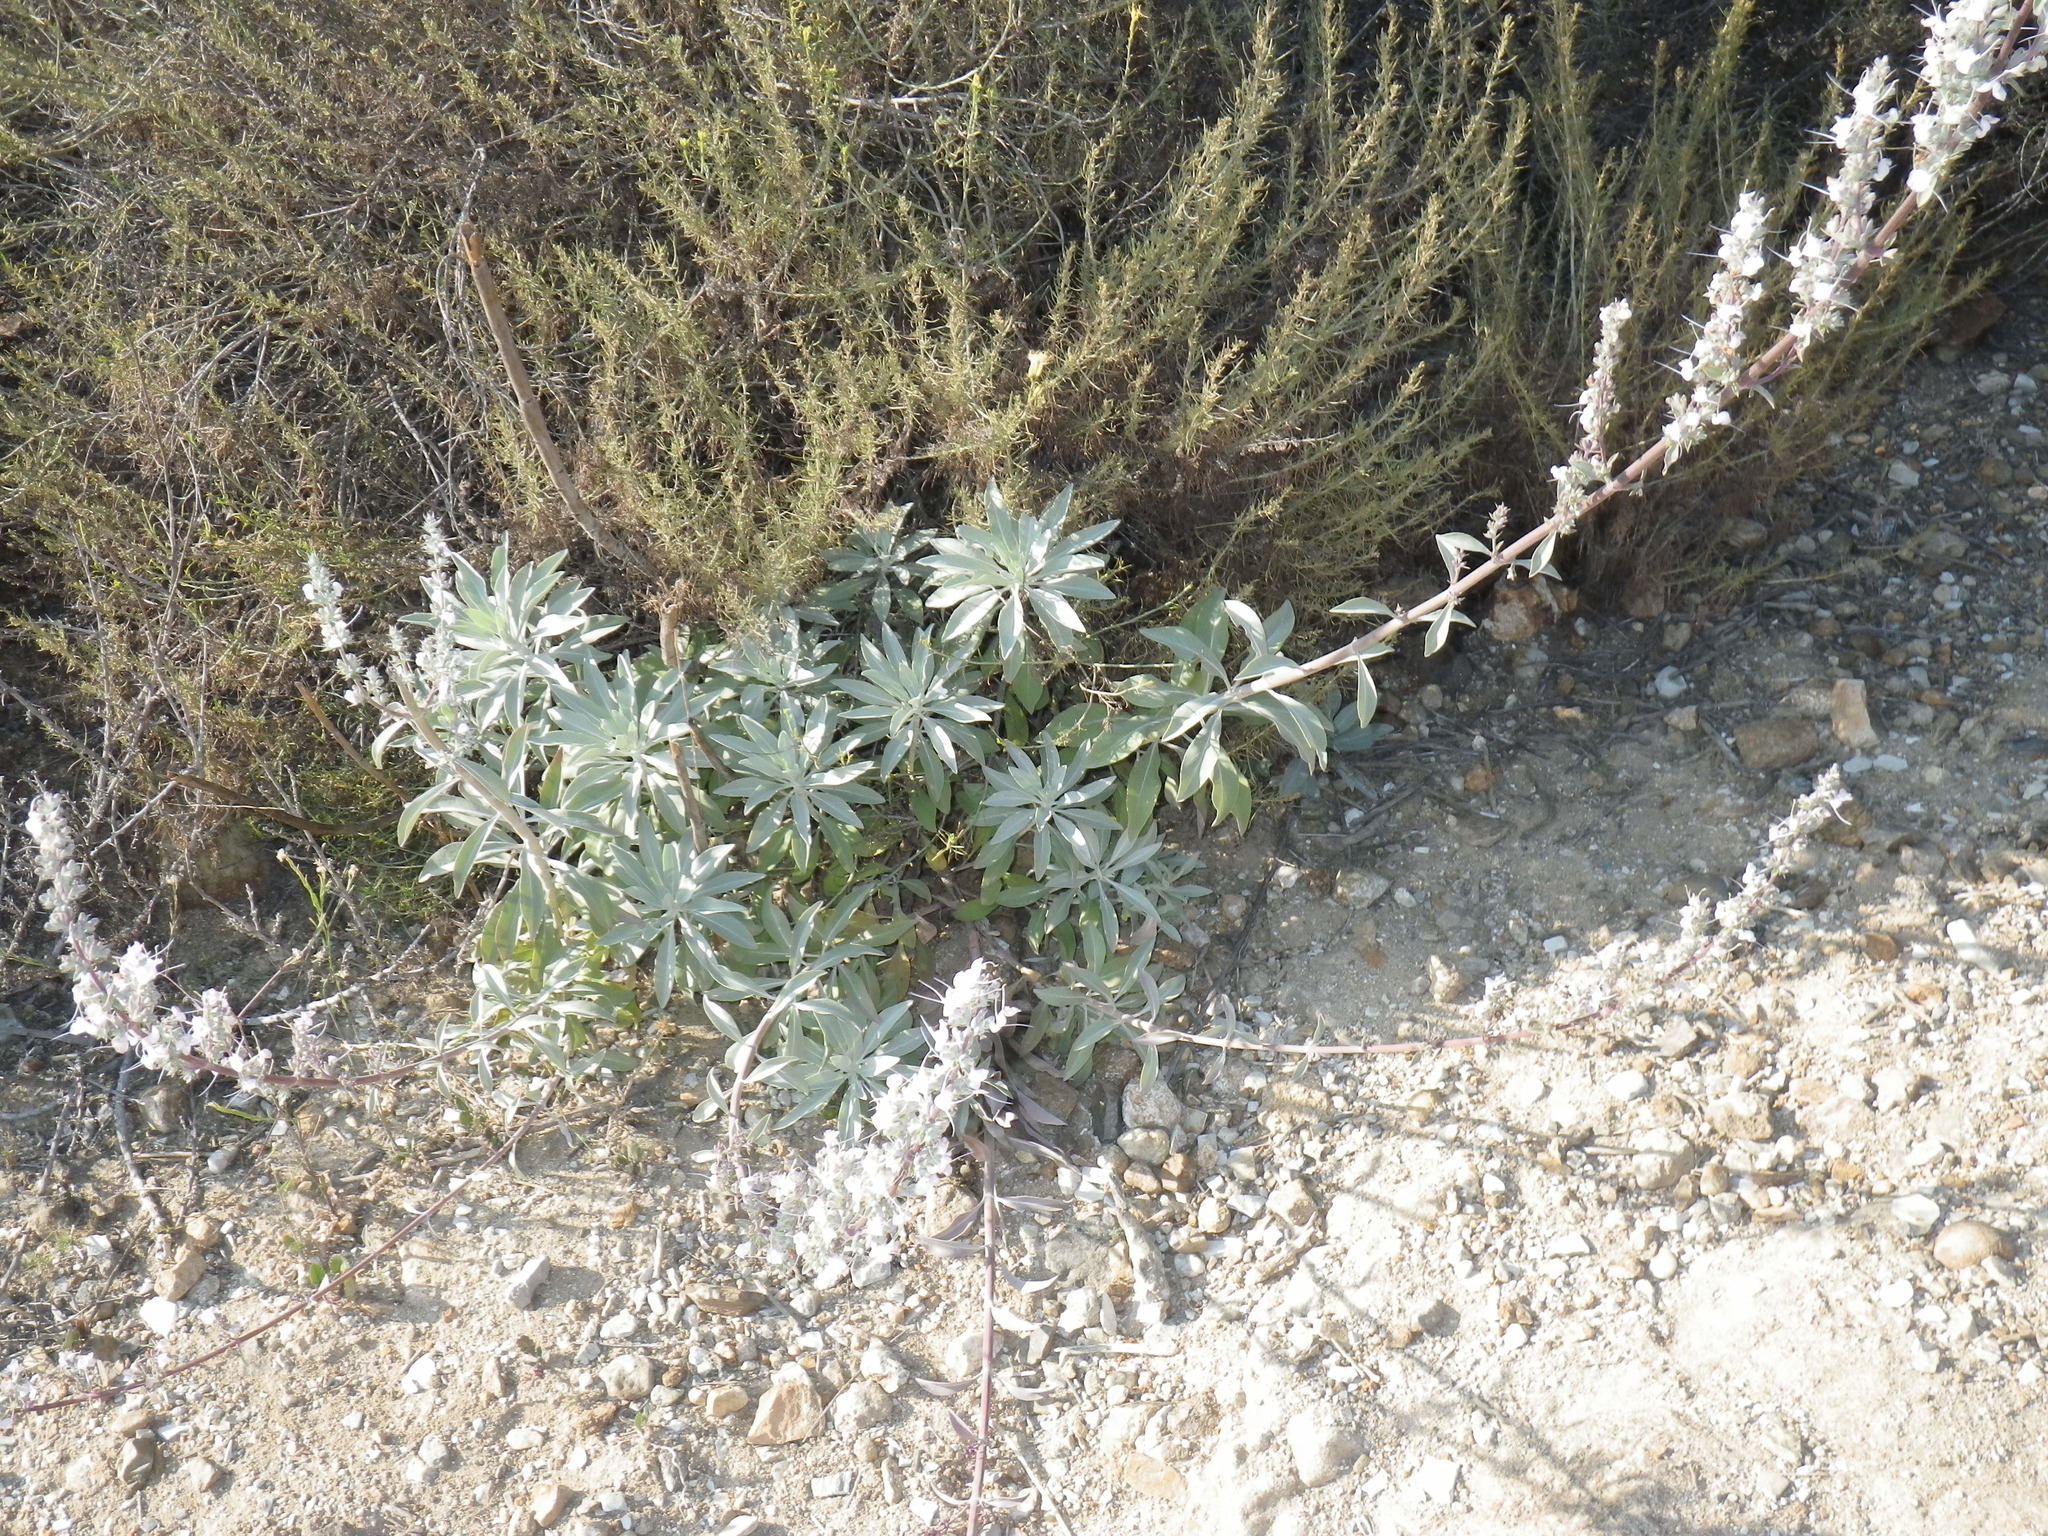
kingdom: Plantae
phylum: Tracheophyta
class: Magnoliopsida
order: Lamiales
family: Lamiaceae
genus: Salvia
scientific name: Salvia apiana
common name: White sage
